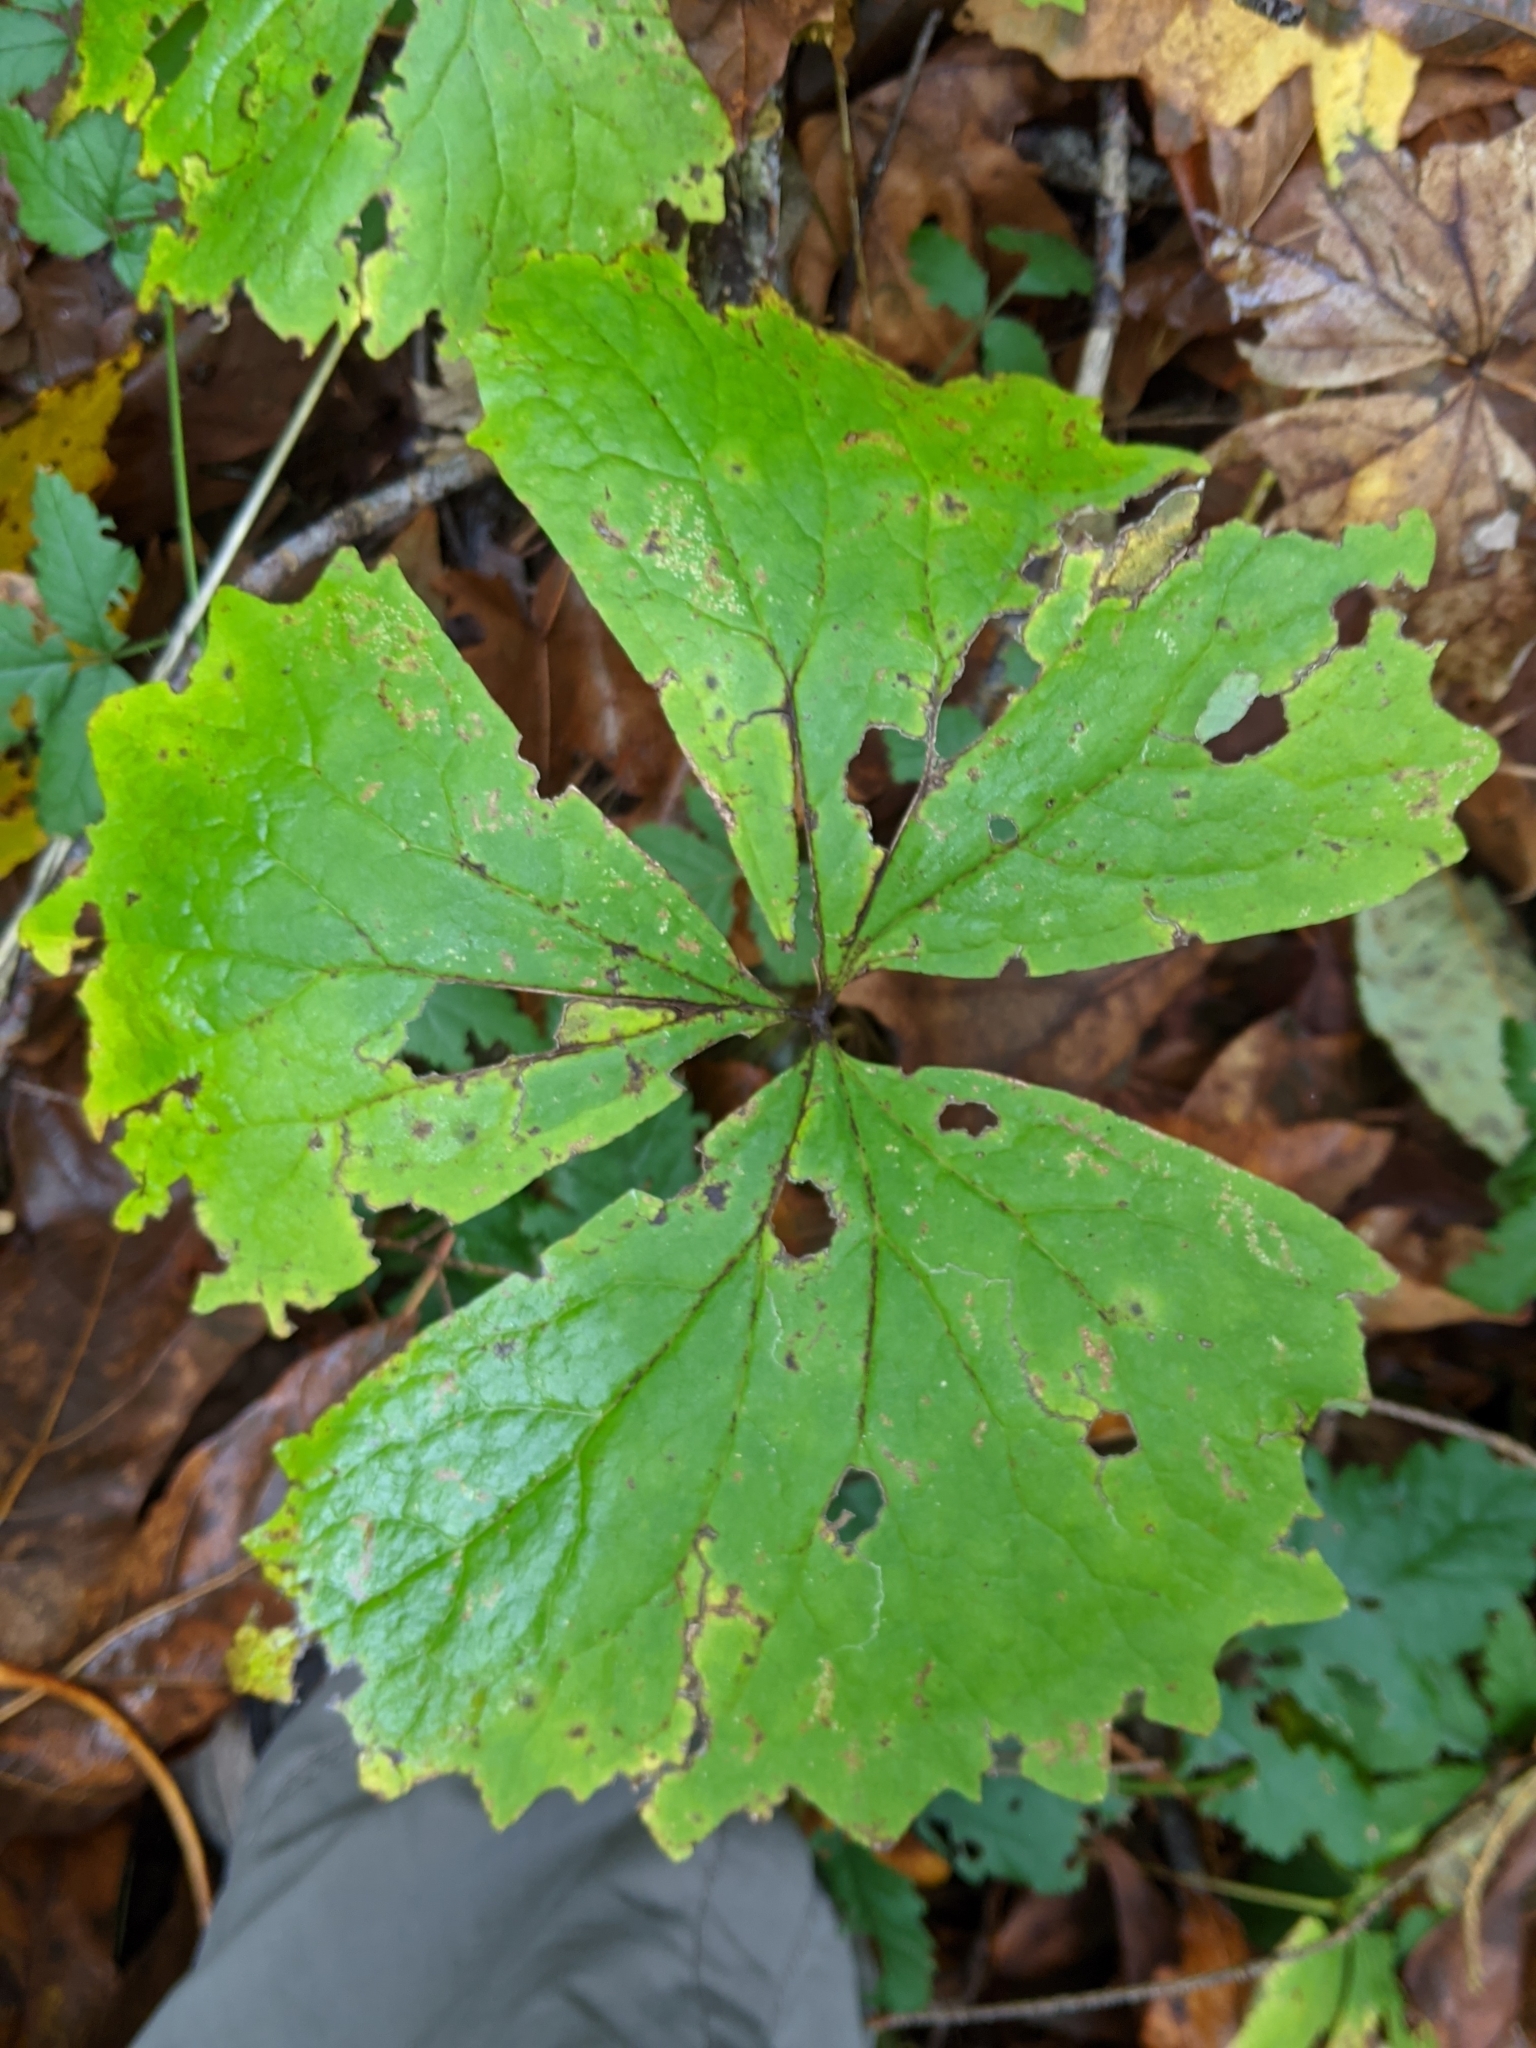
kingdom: Plantae
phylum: Tracheophyta
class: Magnoliopsida
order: Ranunculales
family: Berberidaceae
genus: Achlys
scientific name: Achlys triphylla
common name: Vanilla-leaf
